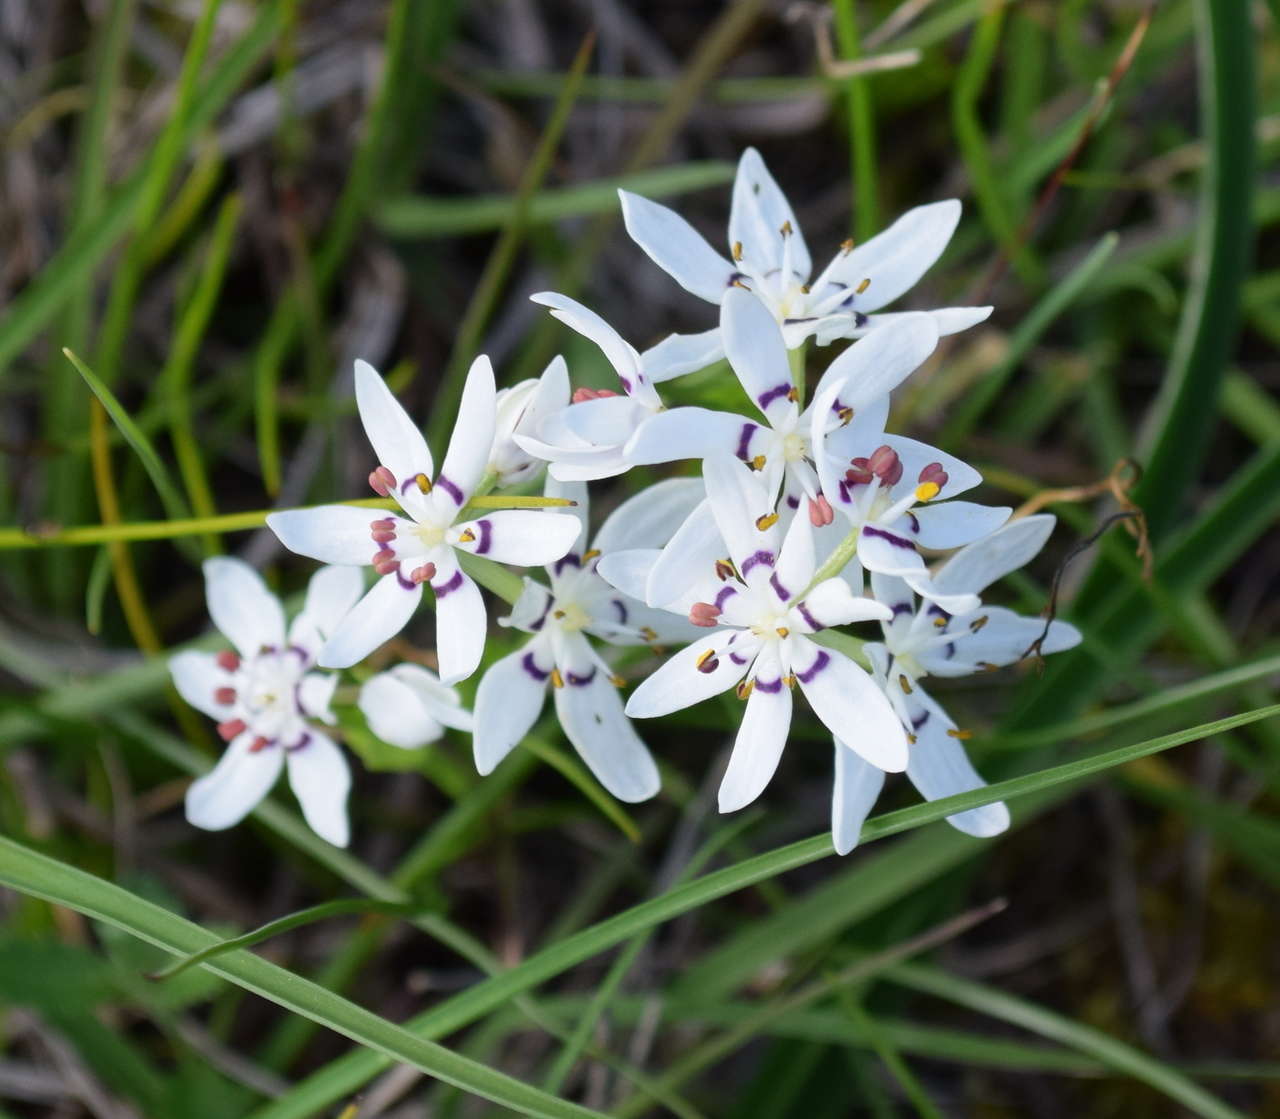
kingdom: Plantae
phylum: Tracheophyta
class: Liliopsida
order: Liliales
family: Colchicaceae
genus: Wurmbea
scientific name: Wurmbea dioica
